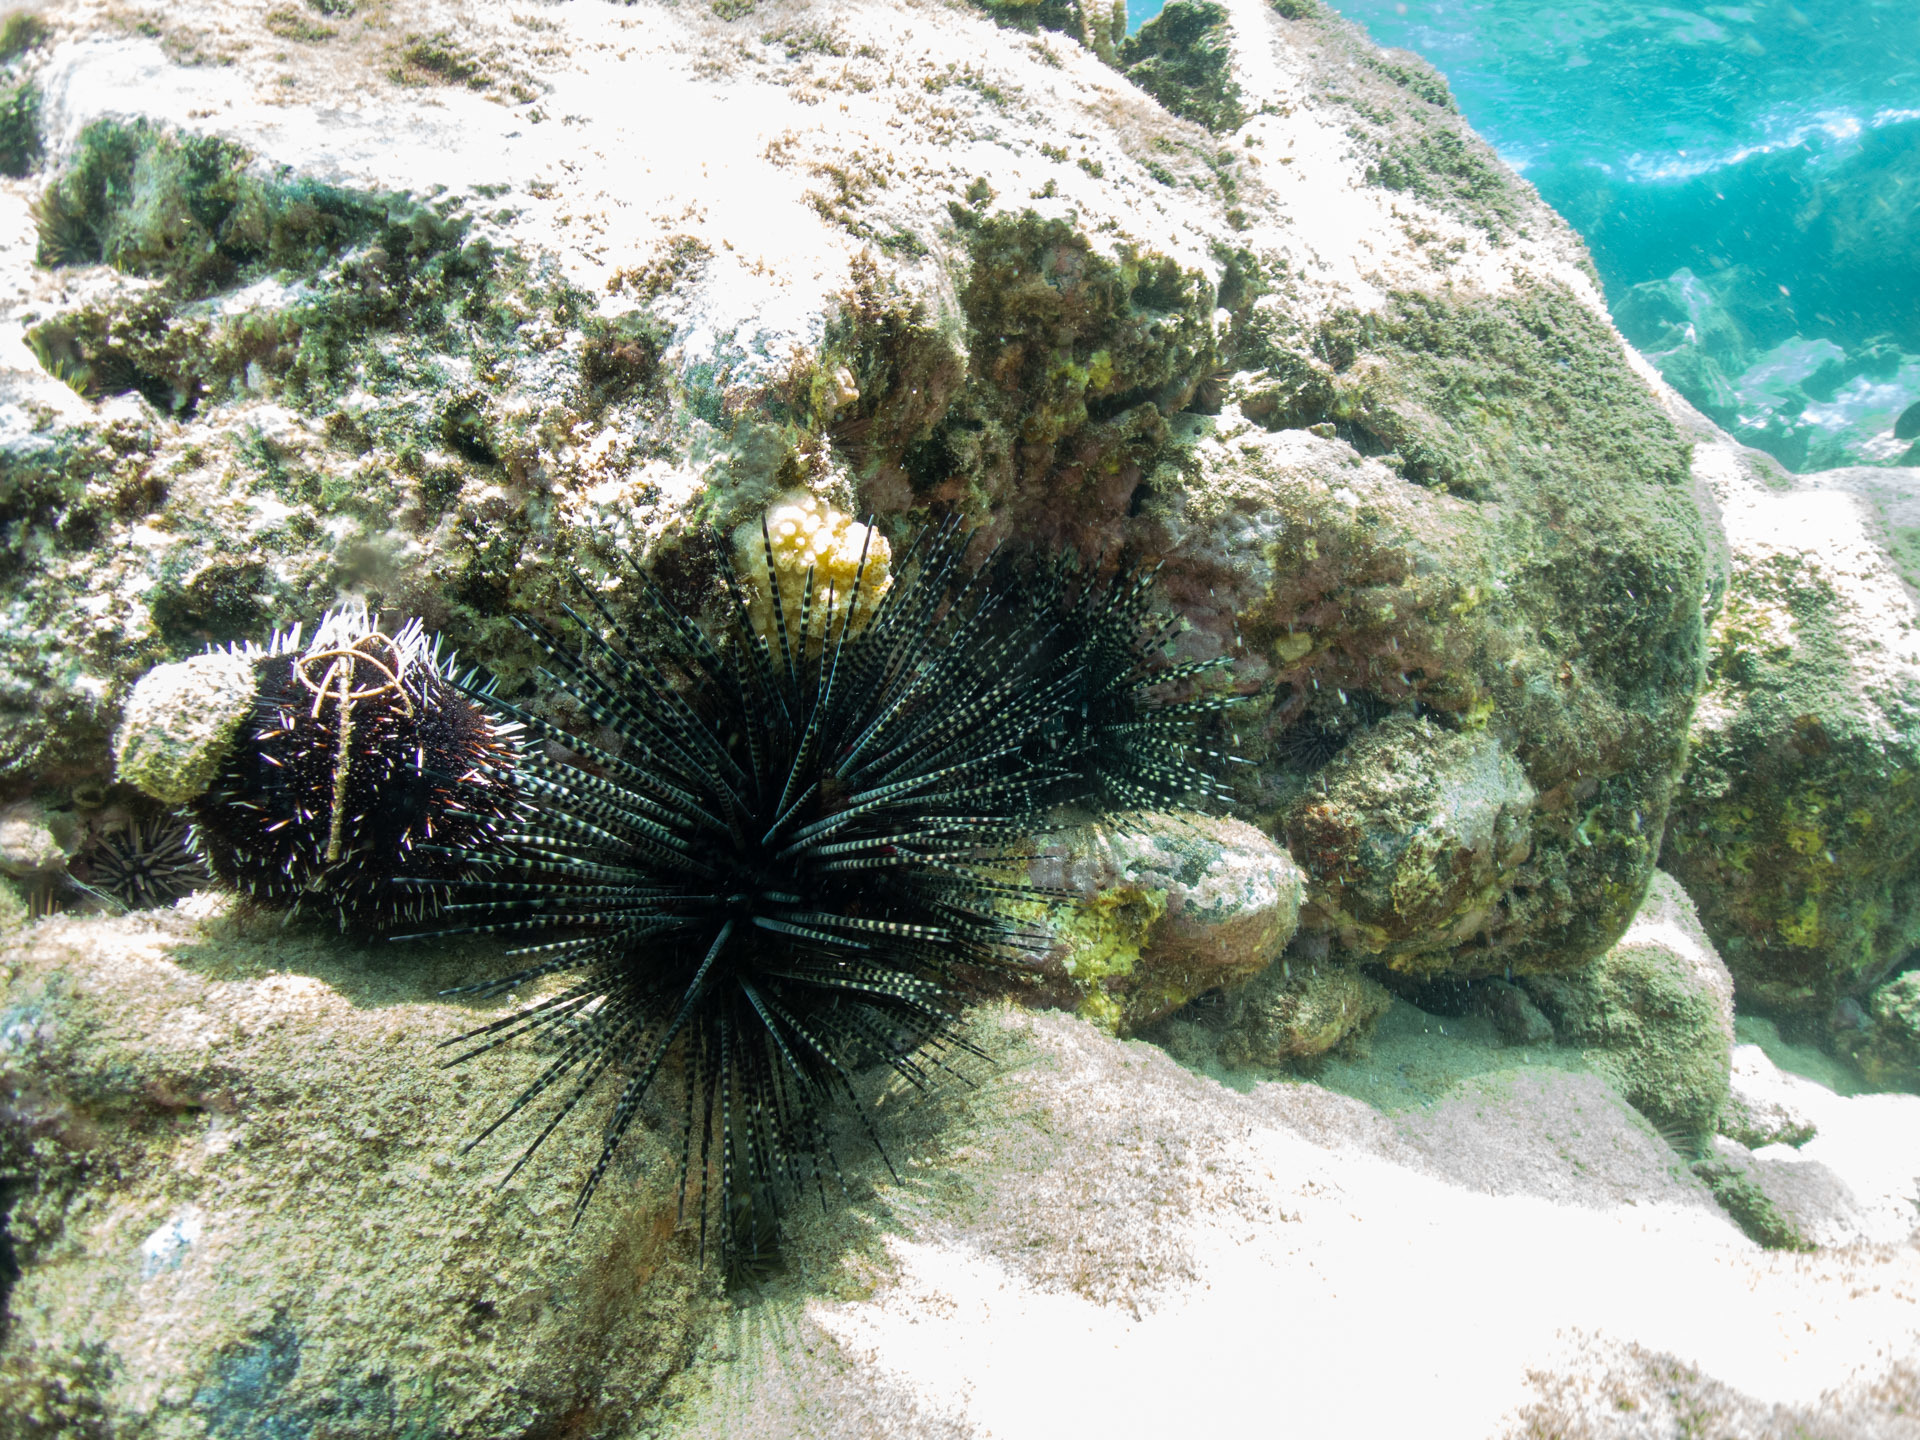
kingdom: Animalia
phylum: Echinodermata
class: Echinoidea
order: Diadematoida
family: Diadematidae
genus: Echinothrix
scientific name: Echinothrix calamaris
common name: Banded sea urchin
